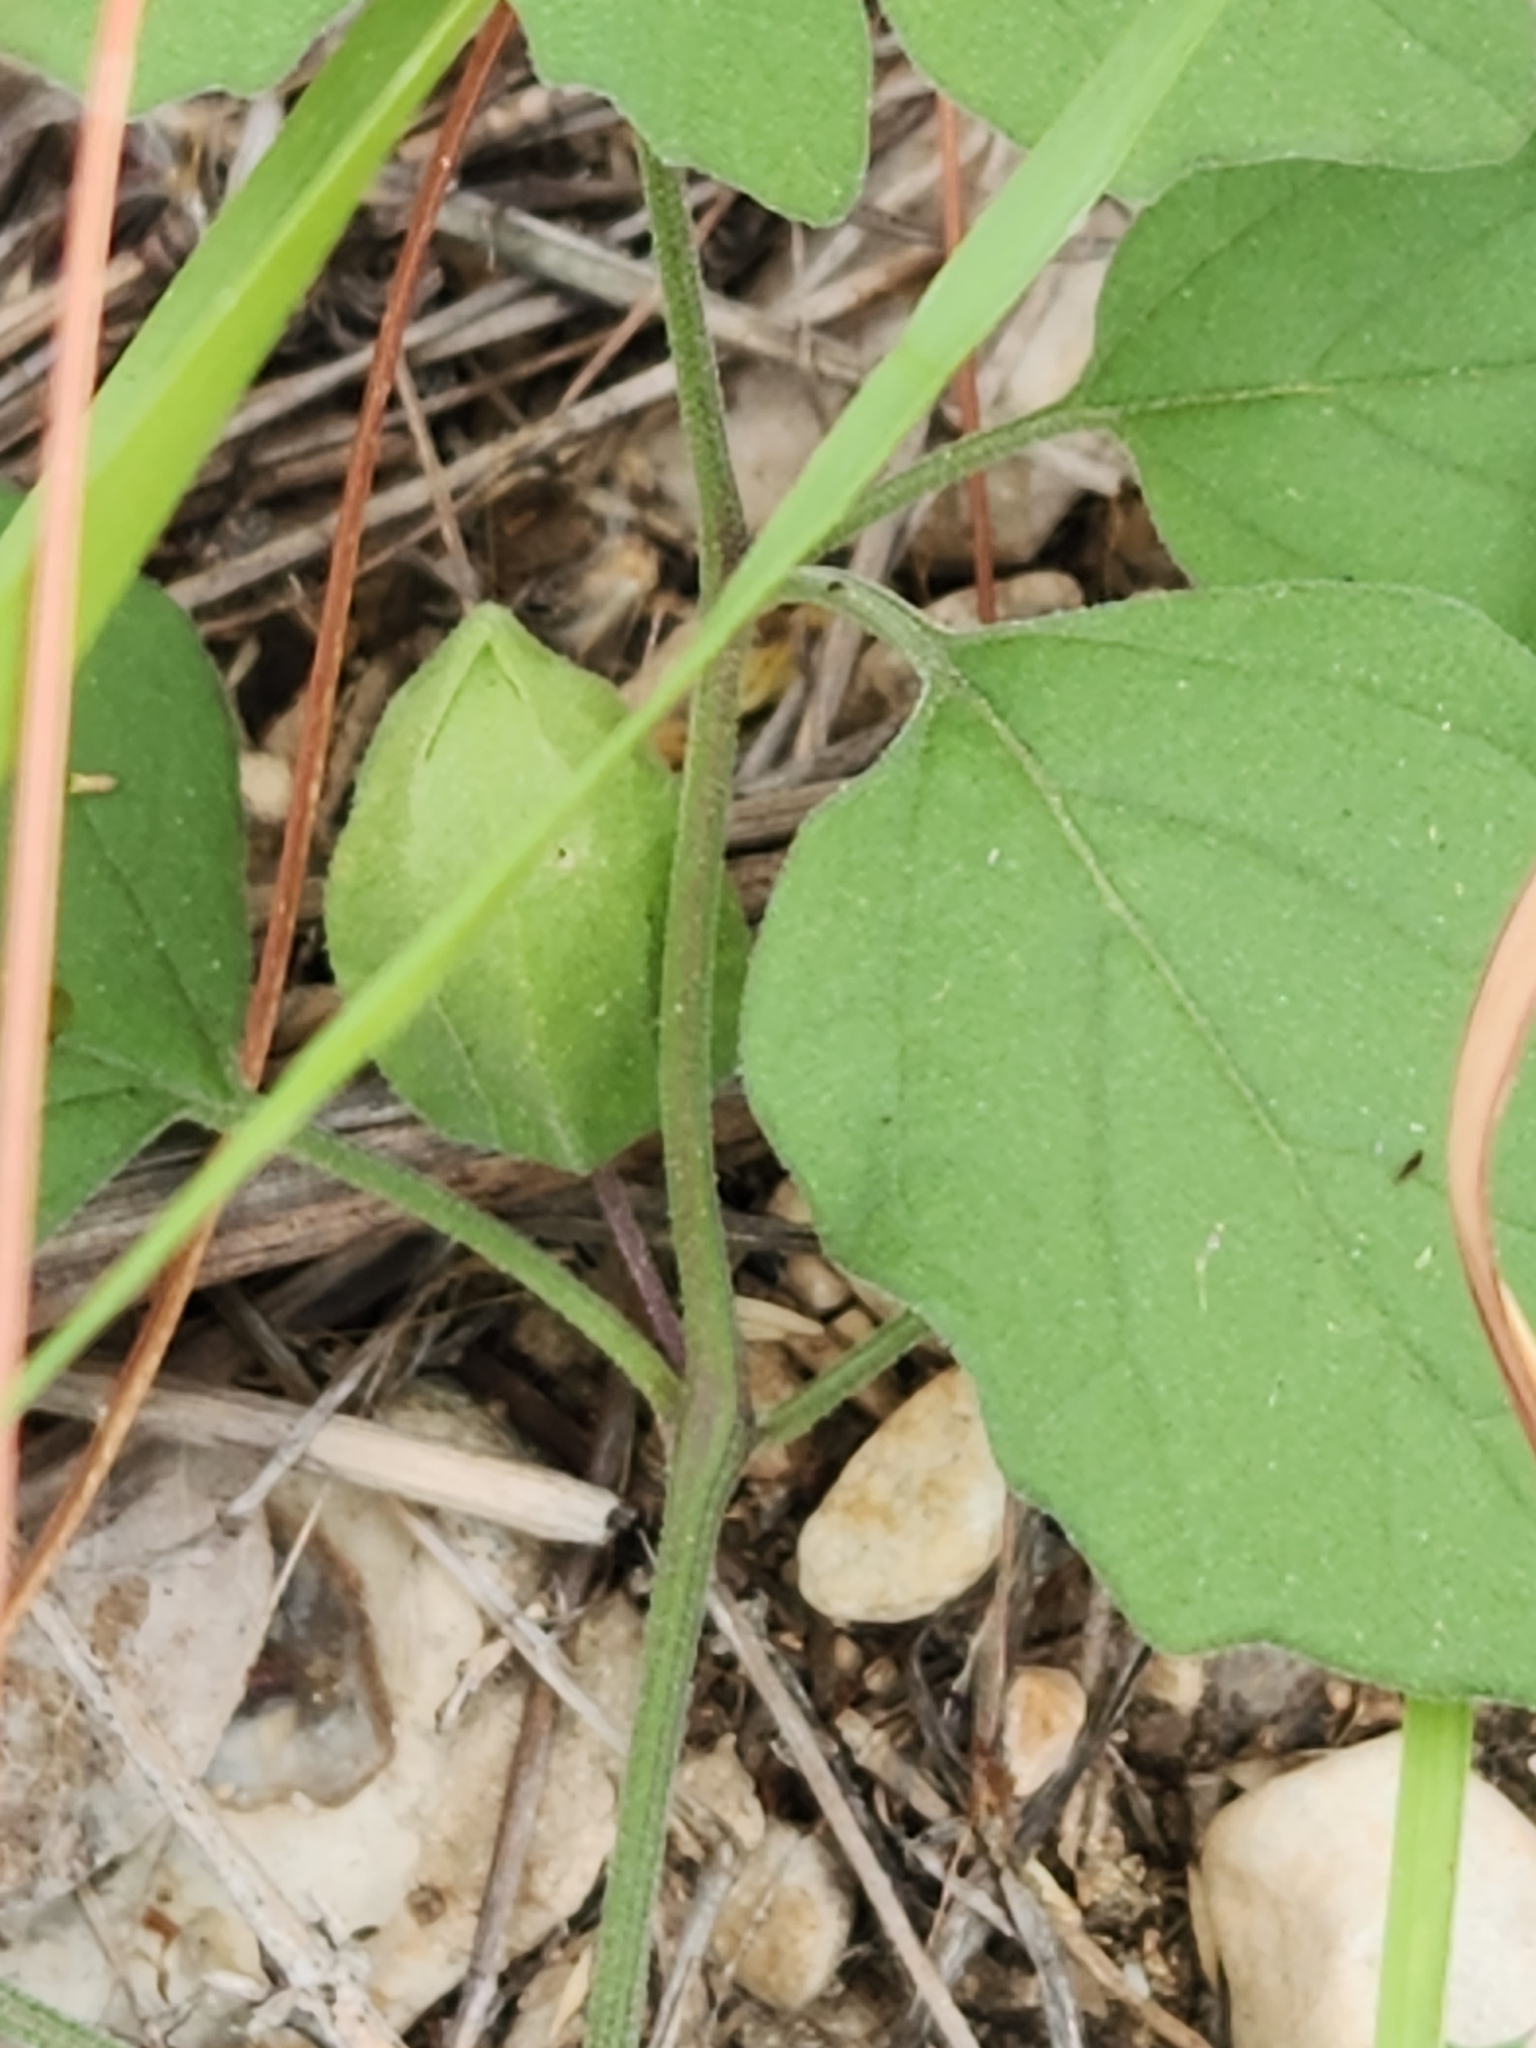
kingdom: Plantae
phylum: Tracheophyta
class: Magnoliopsida
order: Solanales
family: Solanaceae
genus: Physalis
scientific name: Physalis cinerascens
